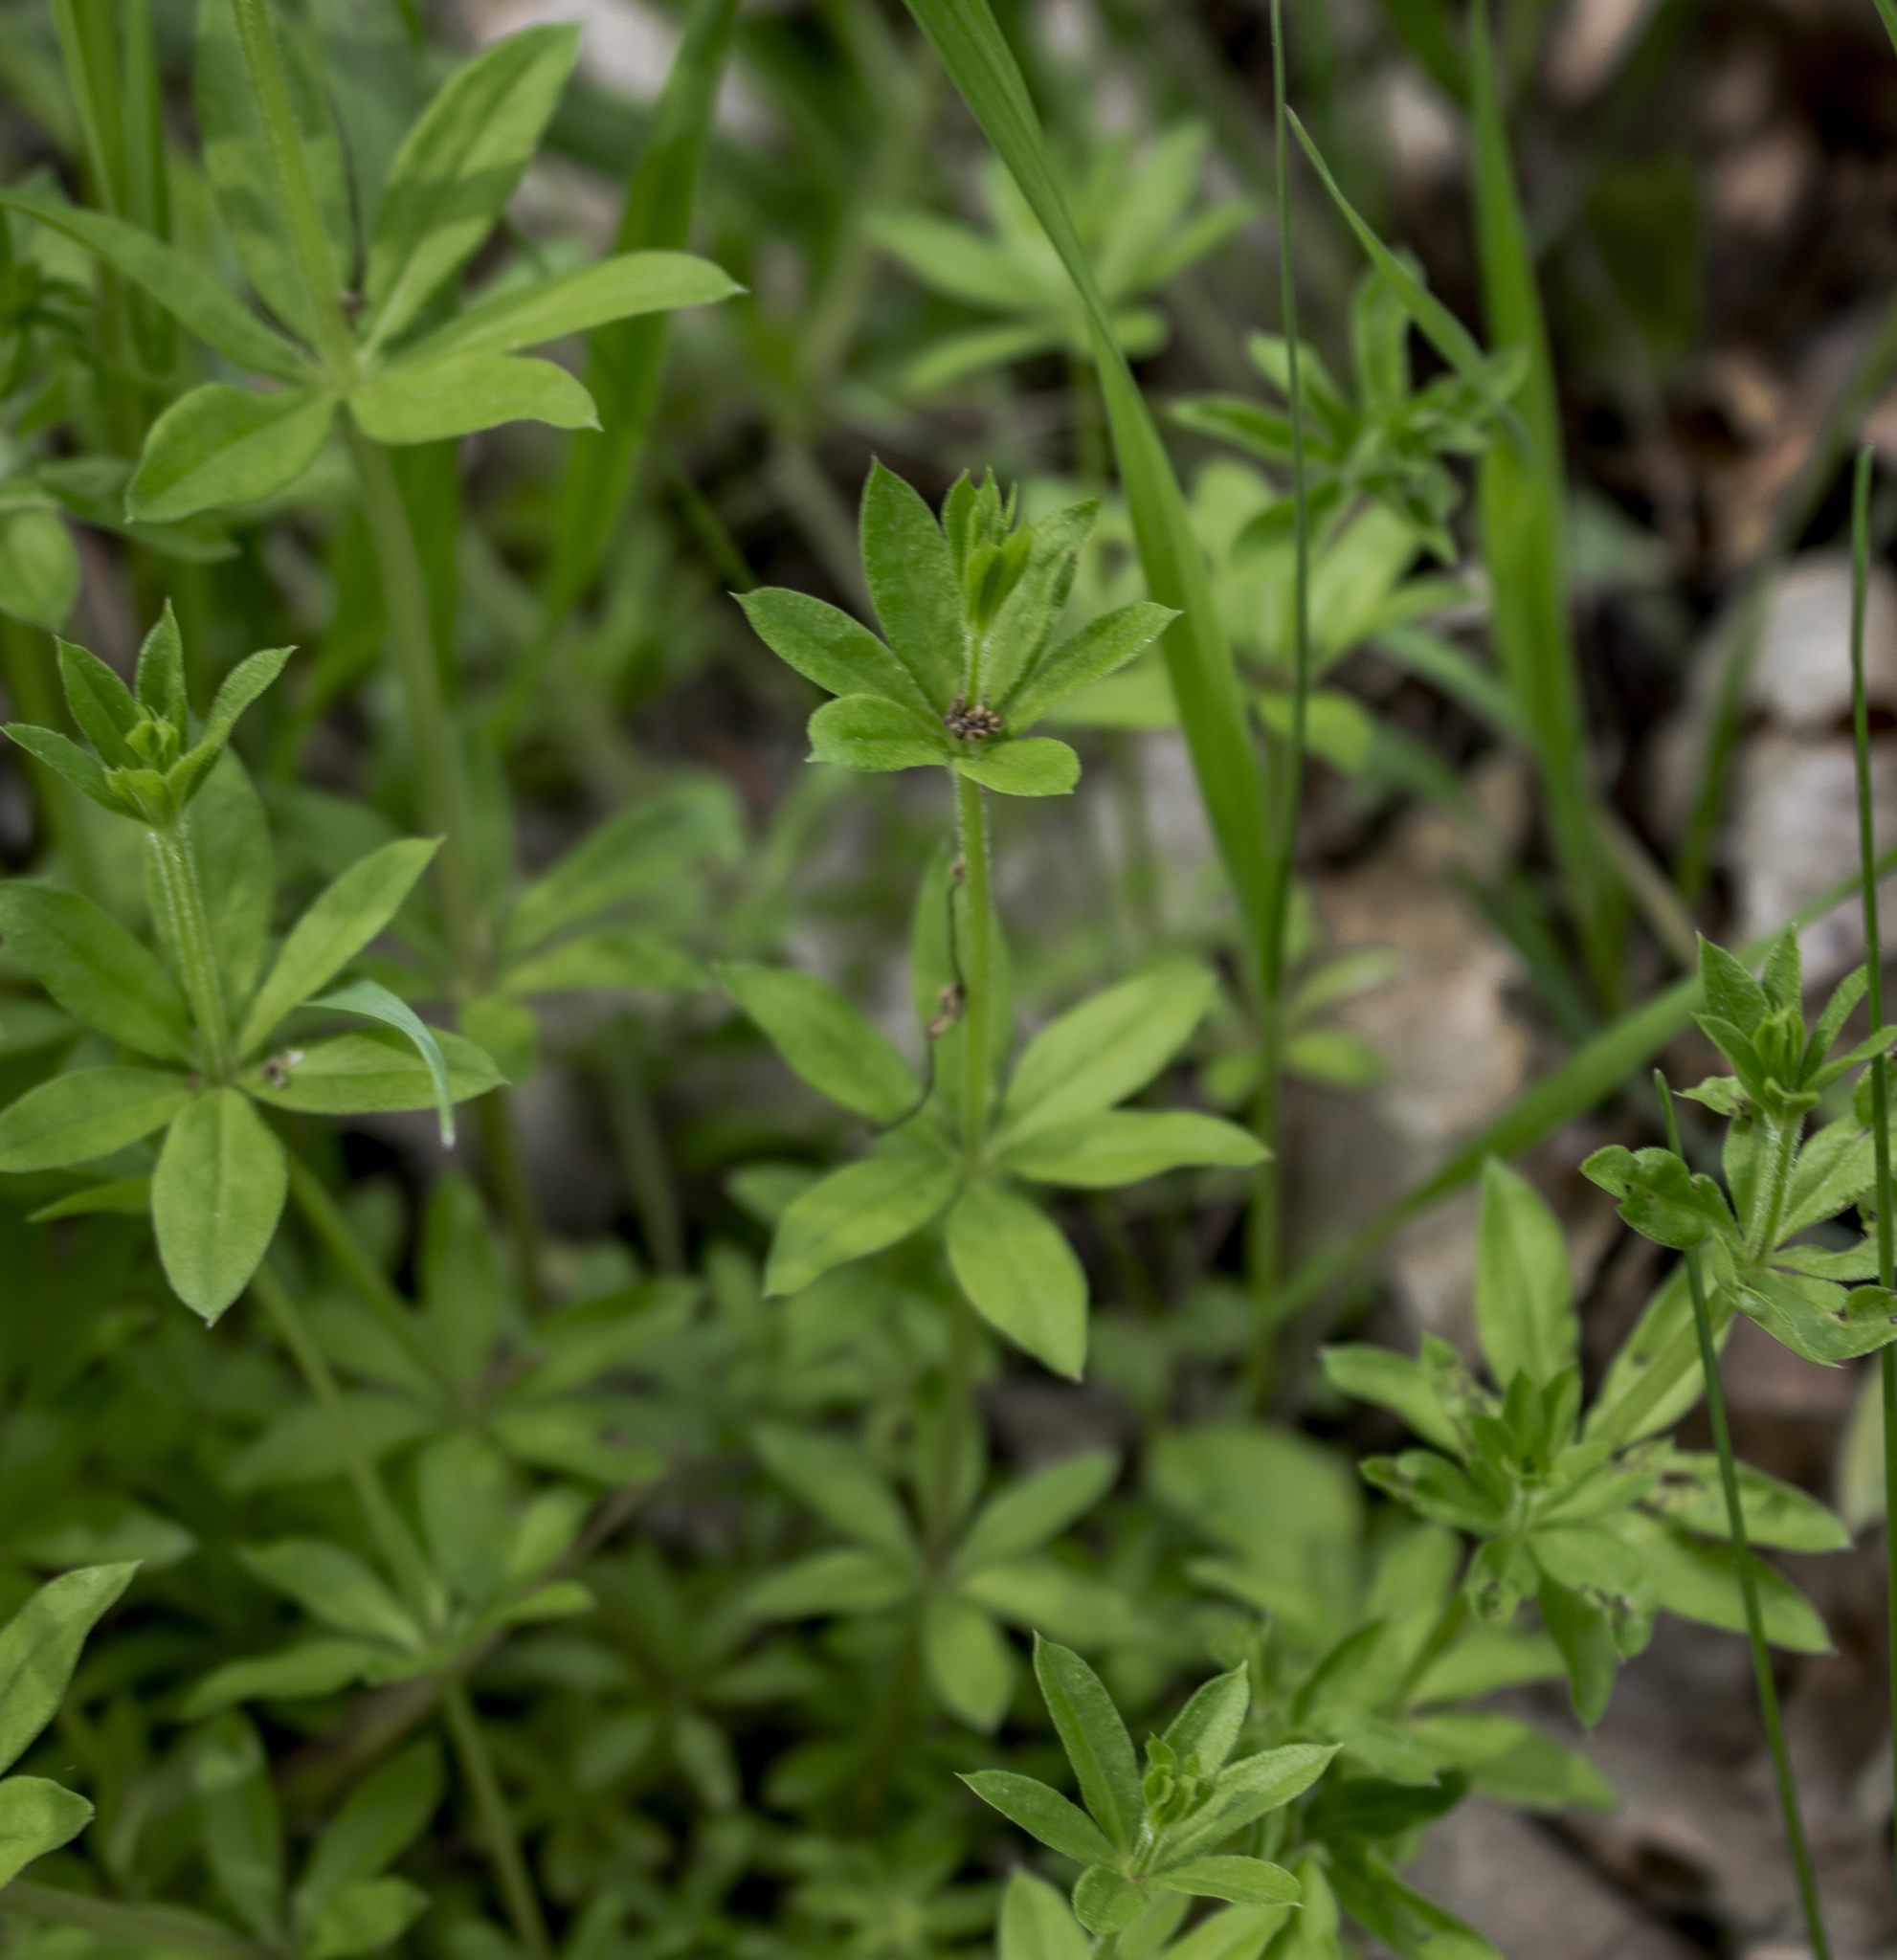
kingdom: Plantae
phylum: Tracheophyta
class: Magnoliopsida
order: Gentianales
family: Rubiaceae
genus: Galium
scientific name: Galium triflorum
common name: Fragrant bedstraw
